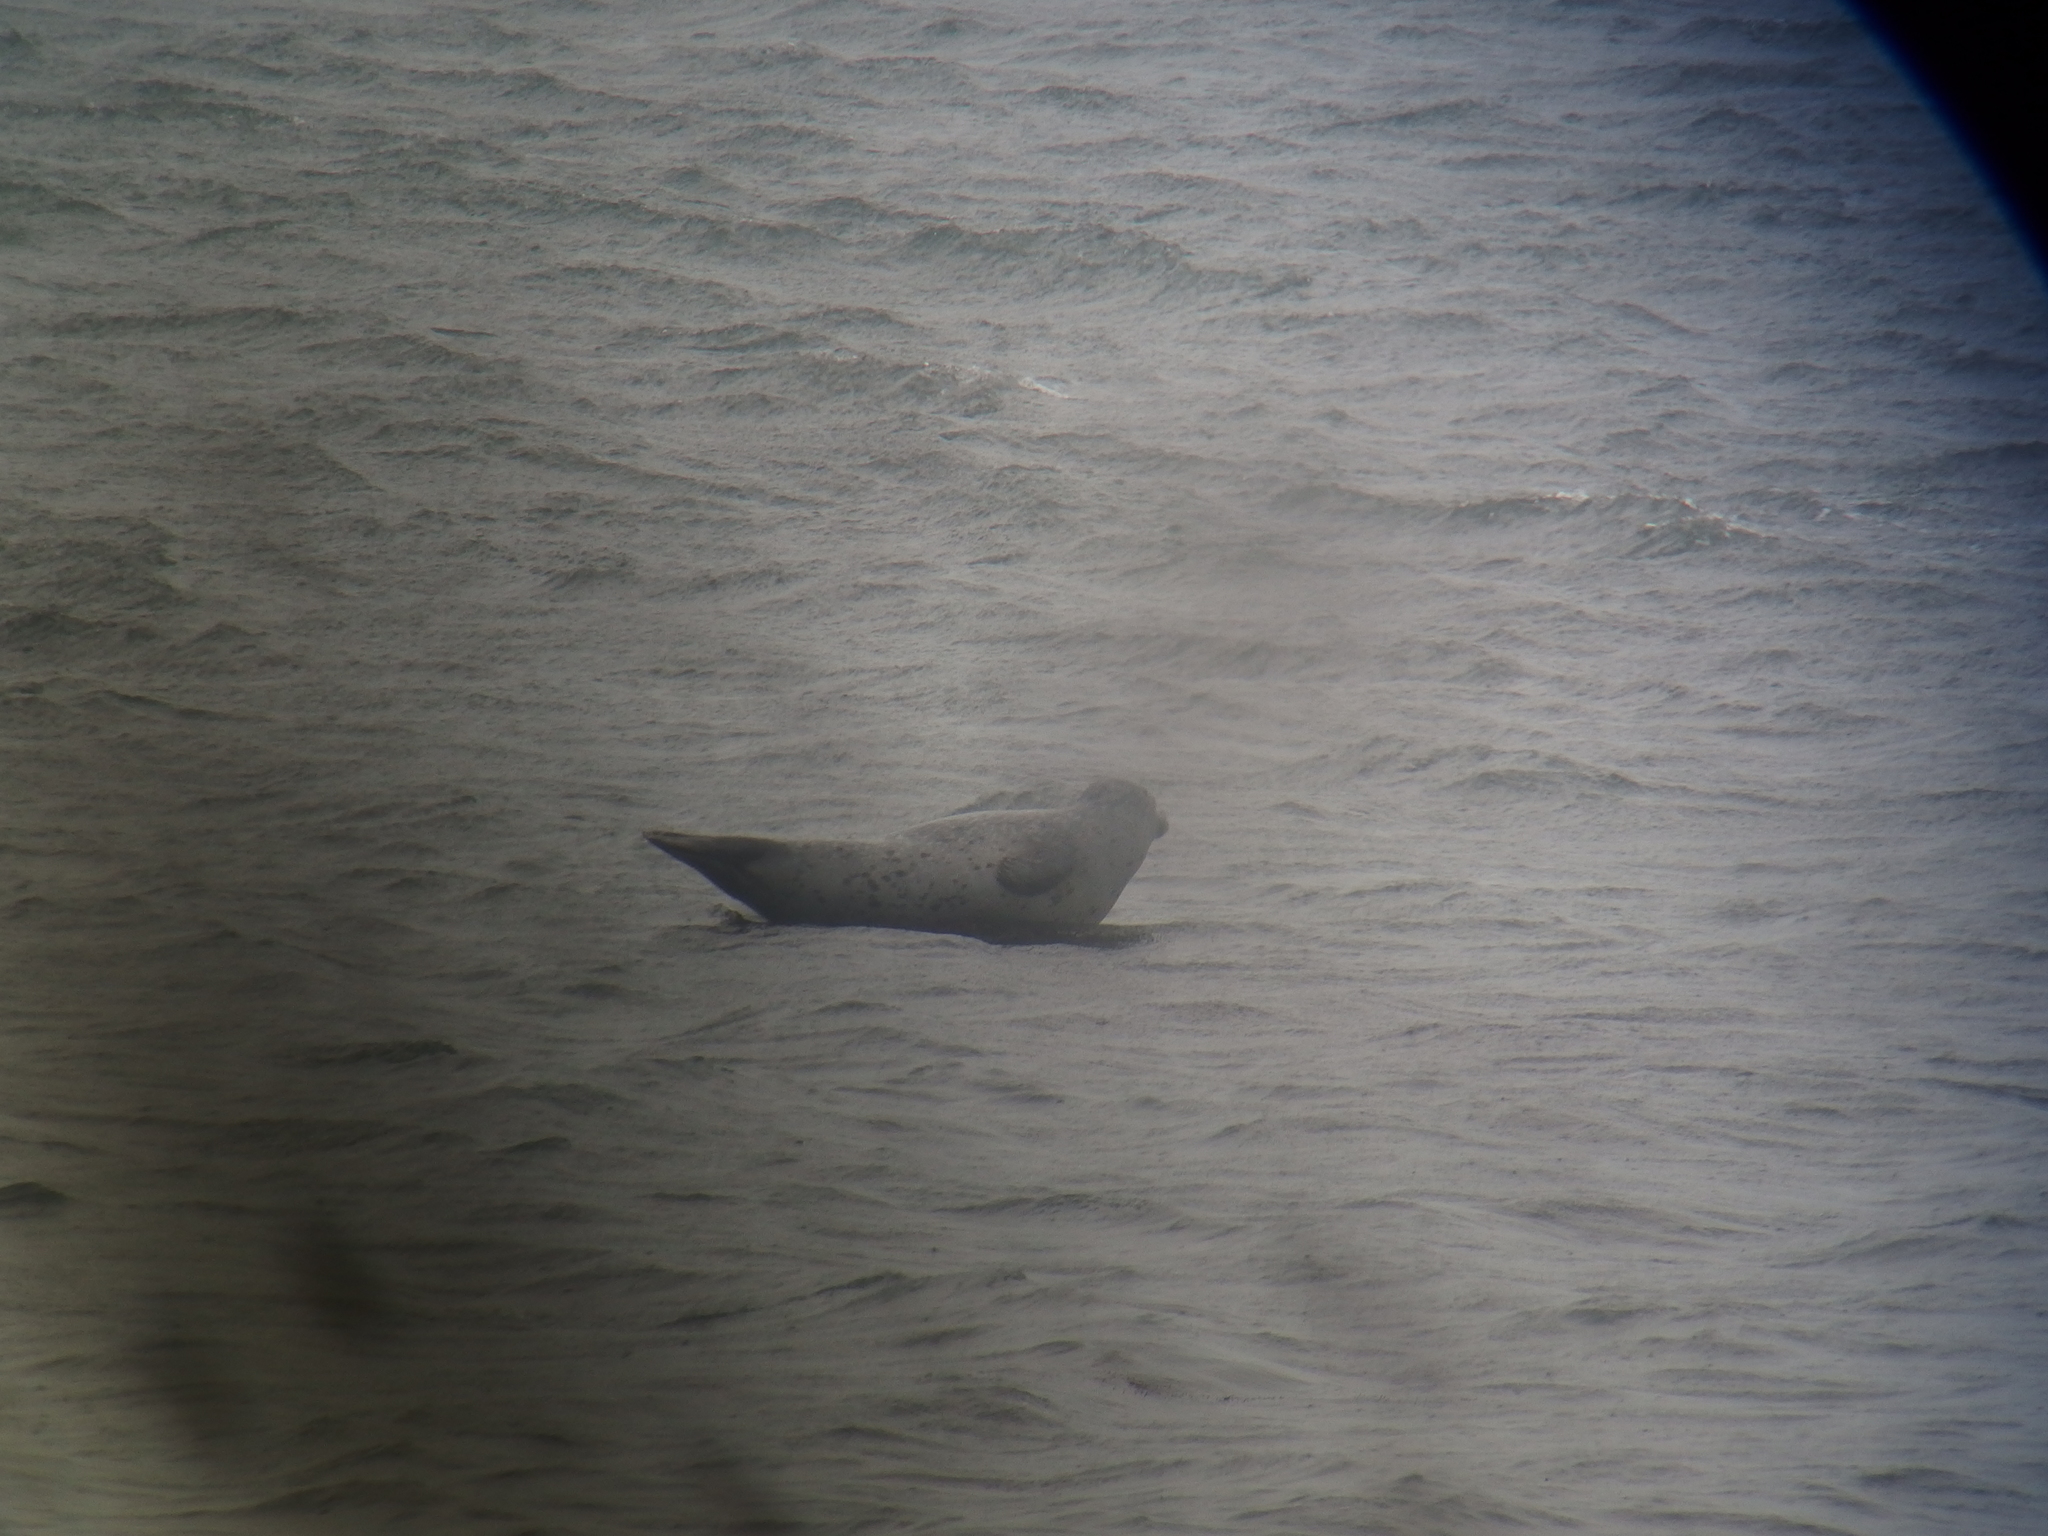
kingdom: Animalia
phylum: Chordata
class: Mammalia
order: Carnivora
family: Phocidae
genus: Phoca
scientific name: Phoca vitulina
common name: Harbor seal
